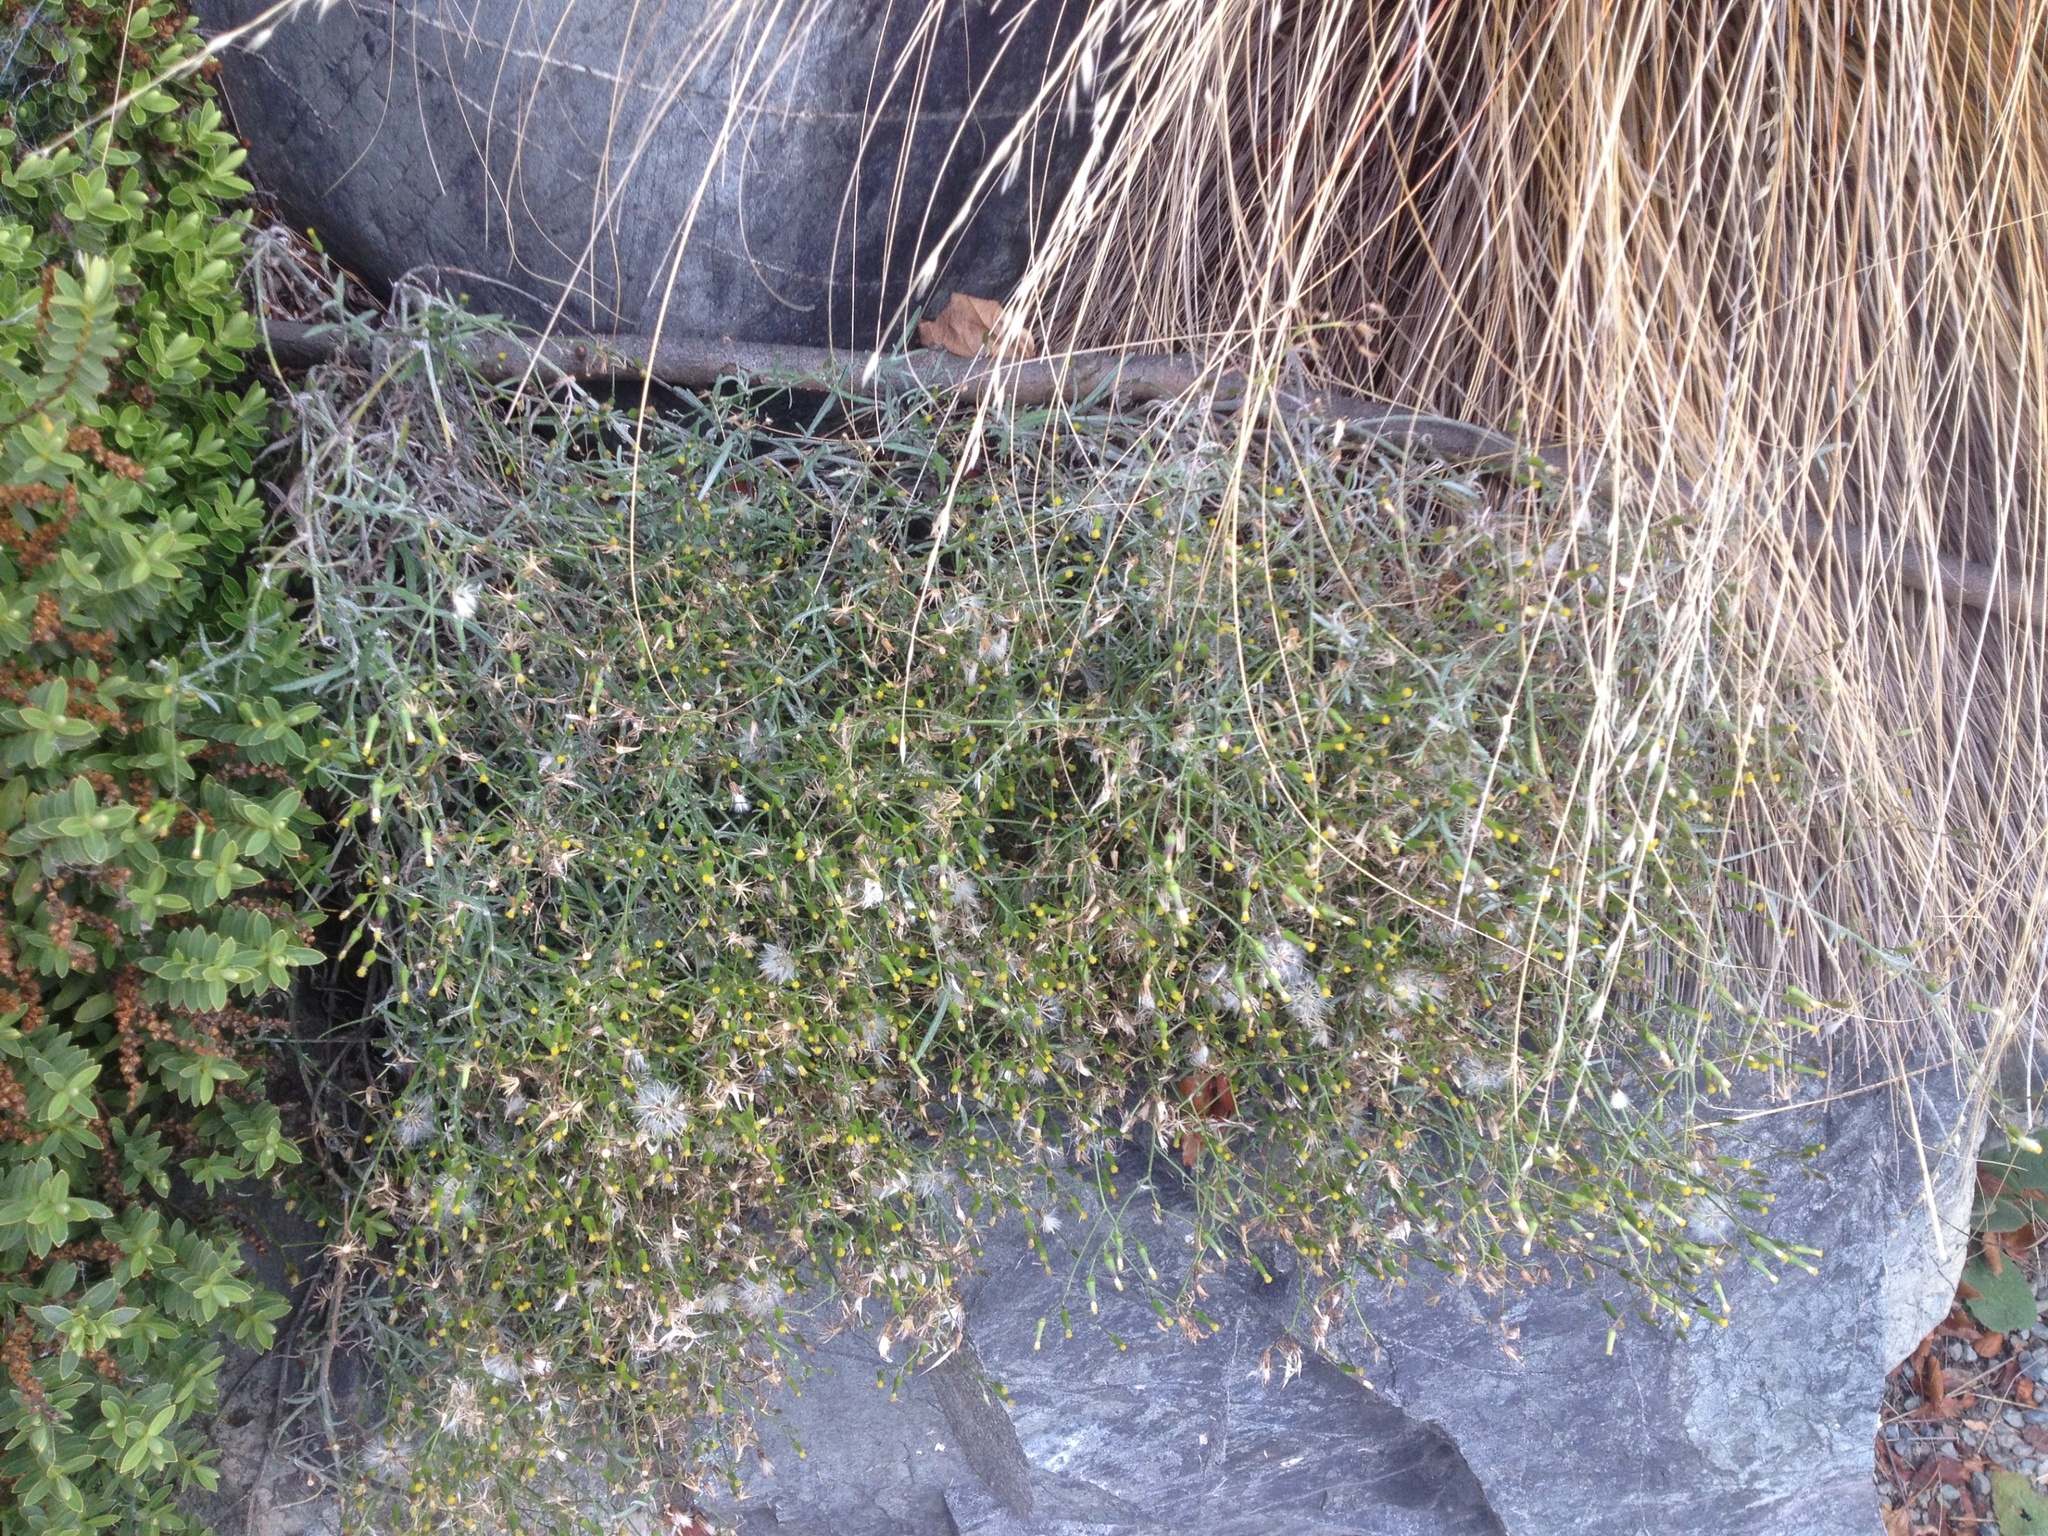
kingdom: Plantae
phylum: Tracheophyta
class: Magnoliopsida
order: Asterales
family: Asteraceae
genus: Senecio
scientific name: Senecio quadridentatus
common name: Cotton fireweed
